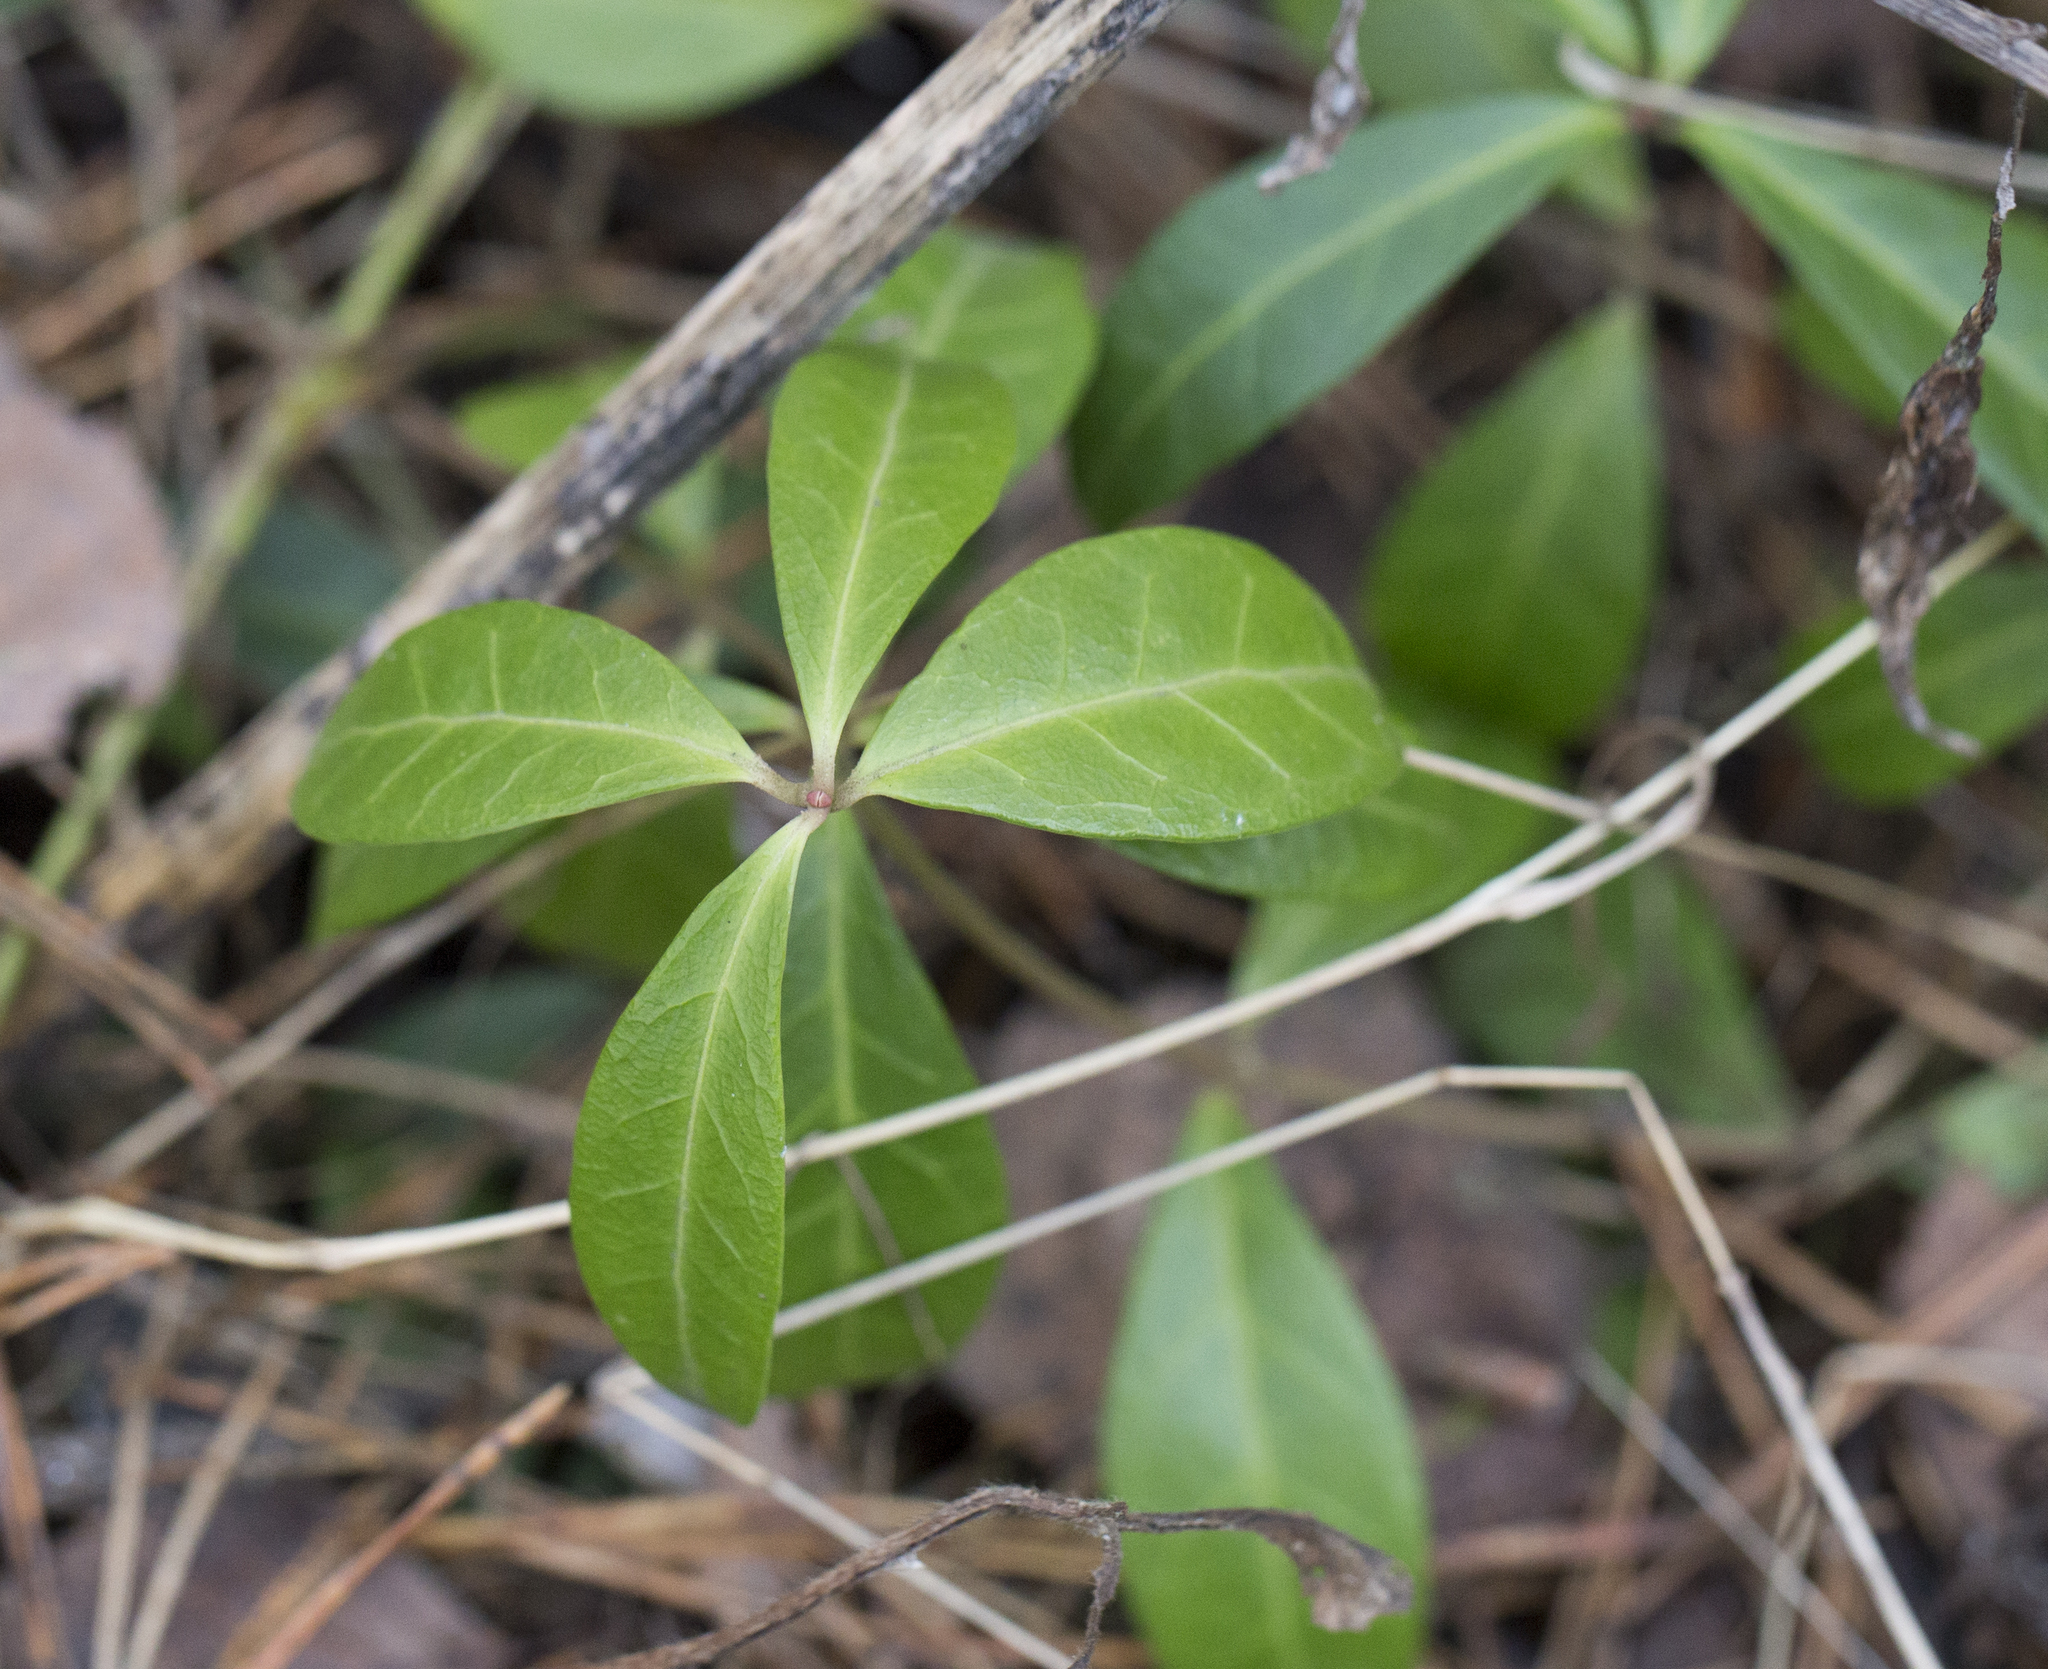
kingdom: Plantae
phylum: Tracheophyta
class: Magnoliopsida
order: Gentianales
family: Apocynaceae
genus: Vinca
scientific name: Vinca minor
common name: Lesser periwinkle
